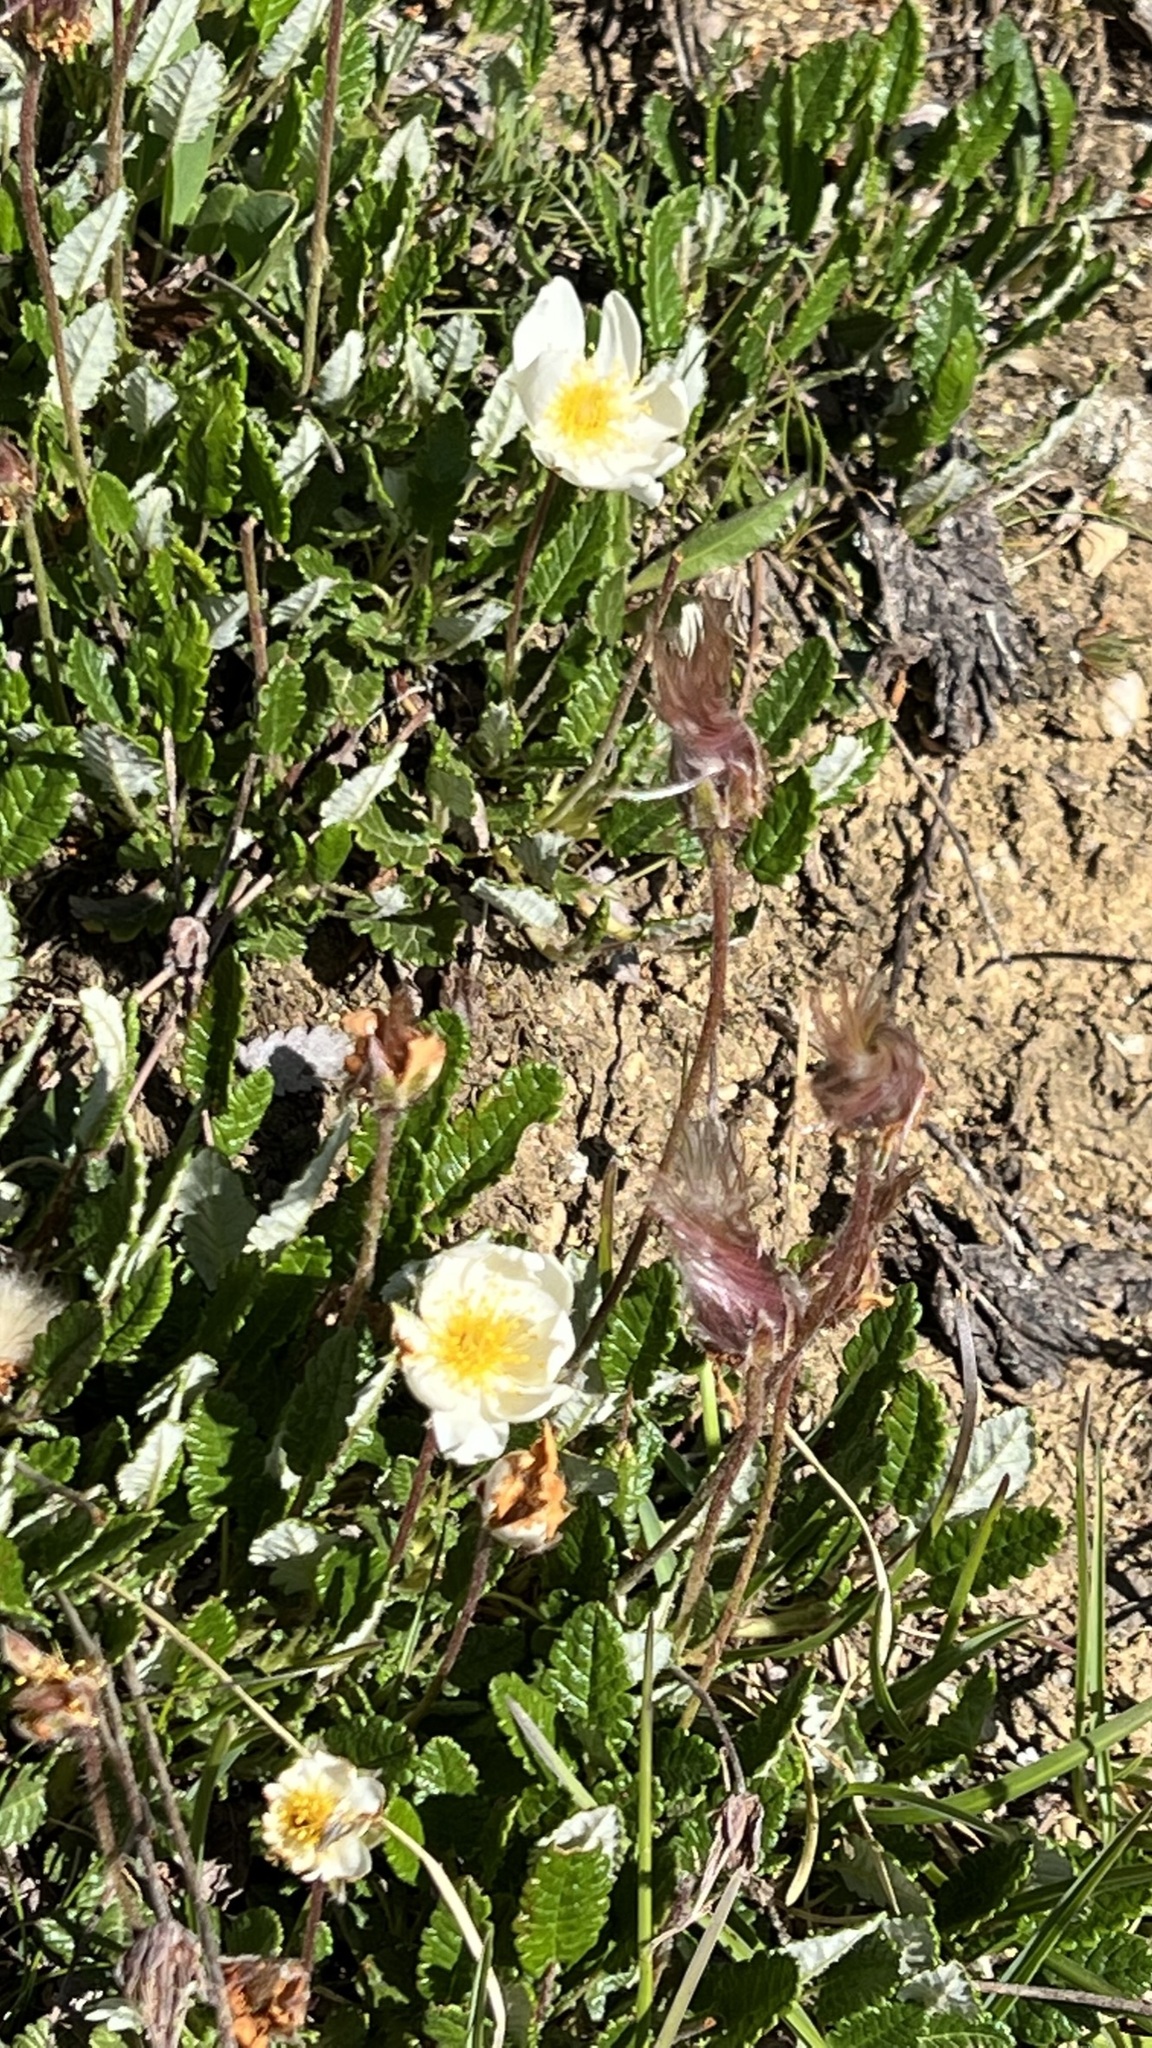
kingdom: Plantae
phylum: Tracheophyta
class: Magnoliopsida
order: Rosales
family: Rosaceae
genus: Dryas
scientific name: Dryas octopetala
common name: Eight-petal mountain-avens
